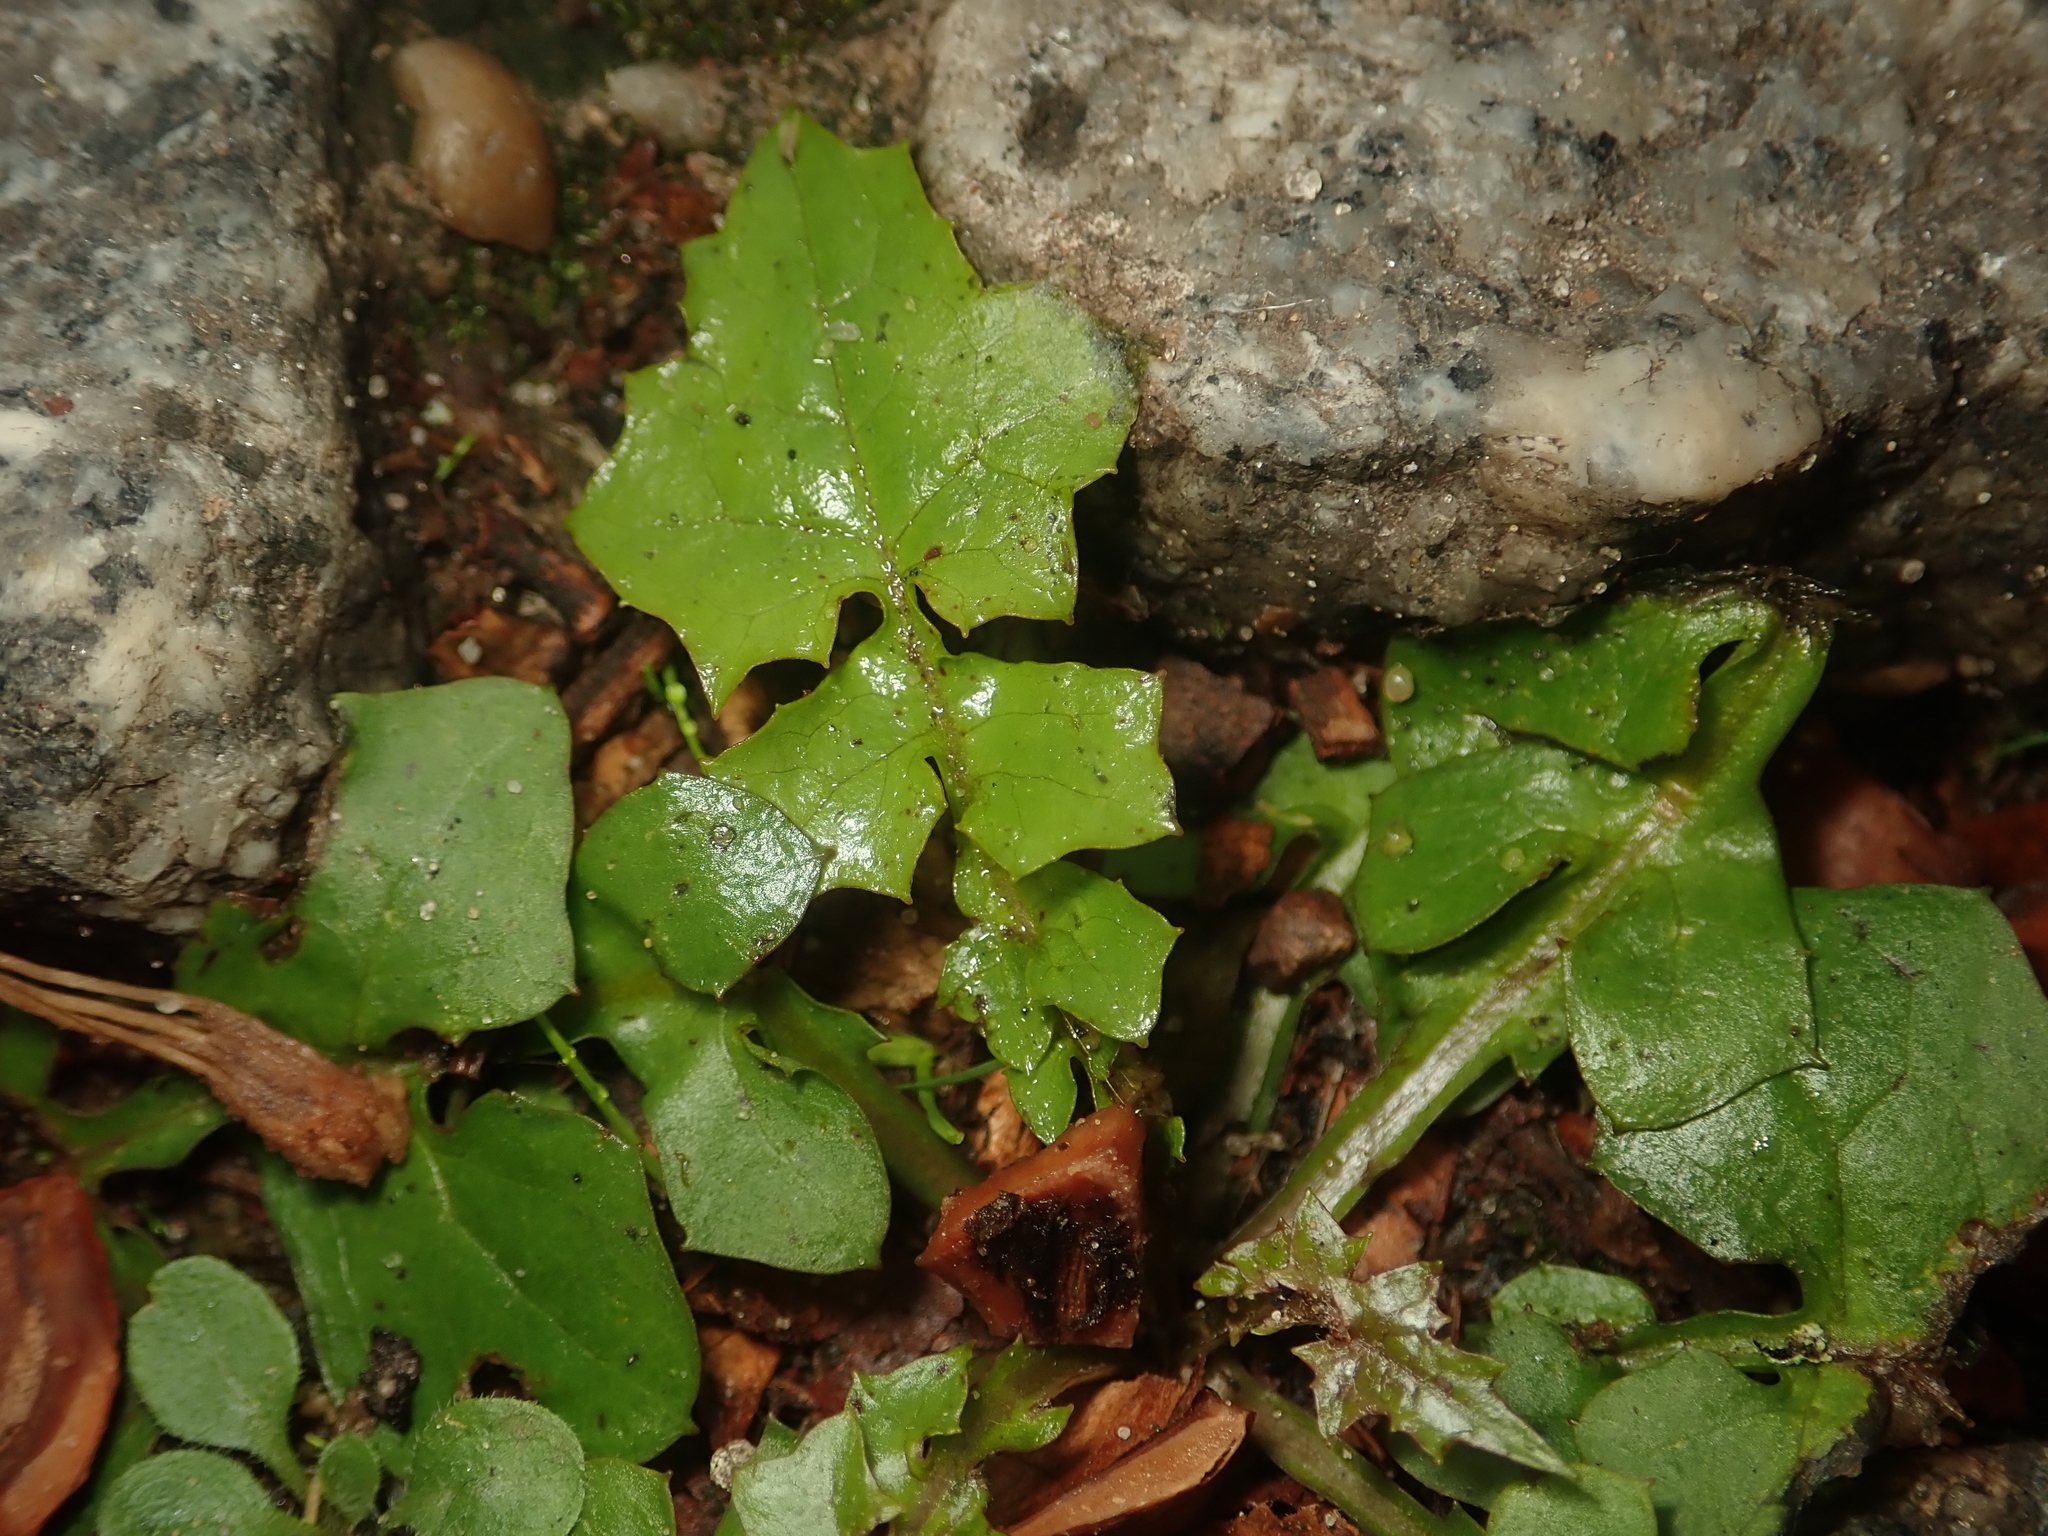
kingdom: Plantae
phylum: Tracheophyta
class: Magnoliopsida
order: Asterales
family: Asteraceae
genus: Mycelis
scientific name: Mycelis muralis
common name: Wall lettuce
